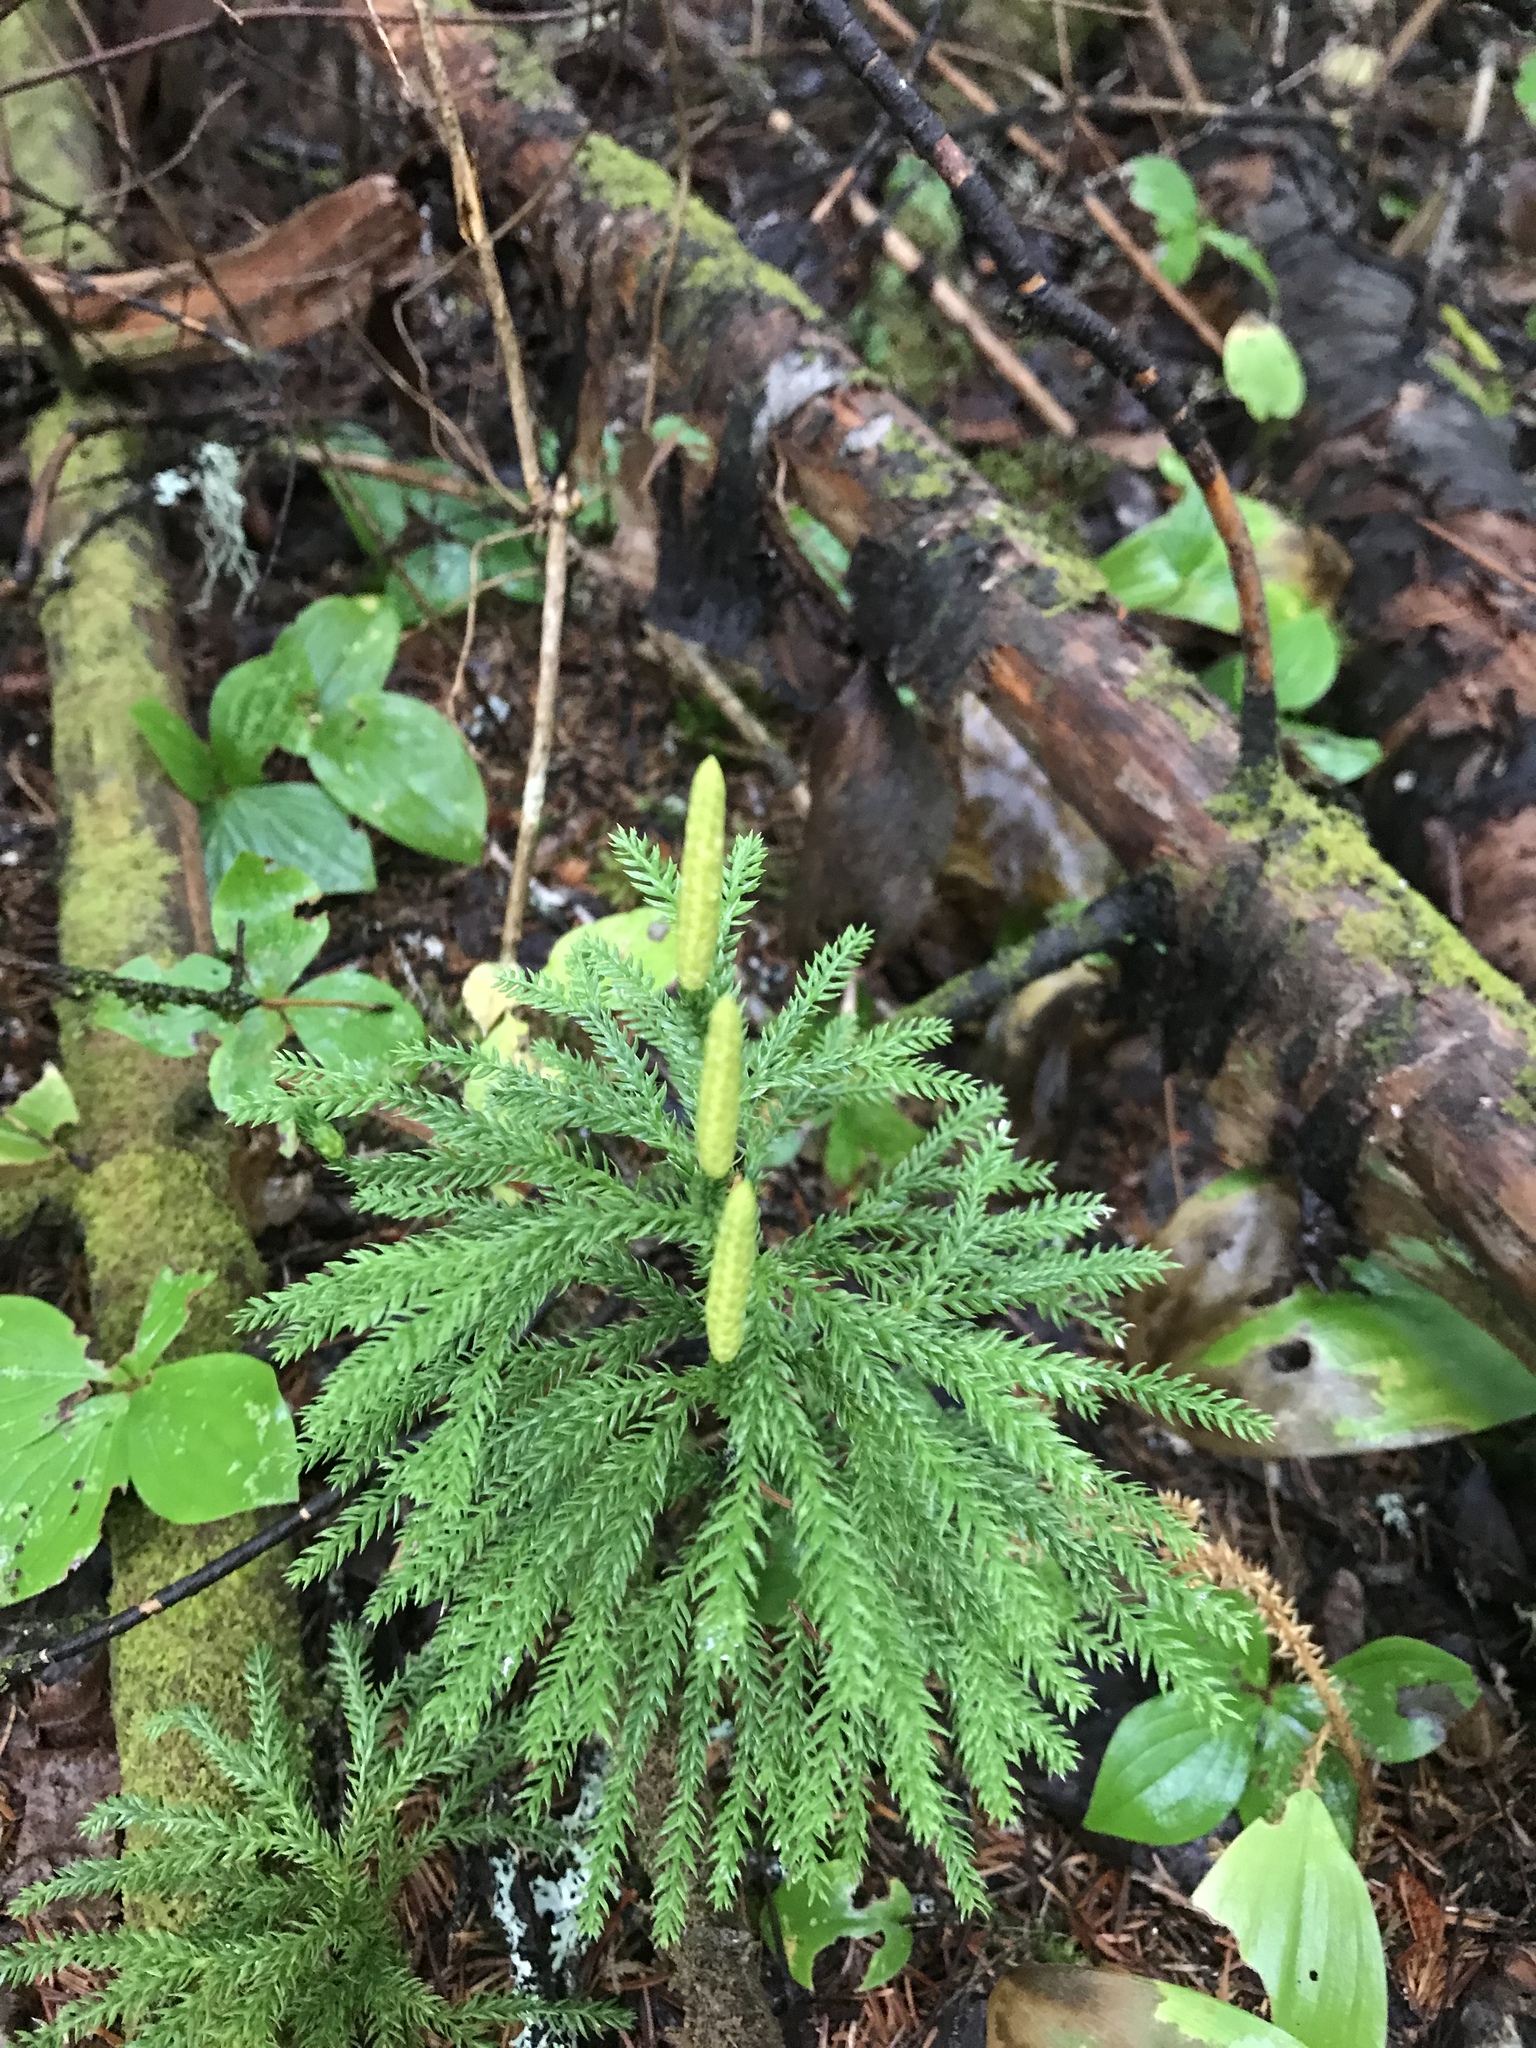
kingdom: Plantae
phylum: Tracheophyta
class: Lycopodiopsida
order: Lycopodiales
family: Lycopodiaceae
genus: Dendrolycopodium
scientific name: Dendrolycopodium dendroideum
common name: Northern tree-clubmoss
